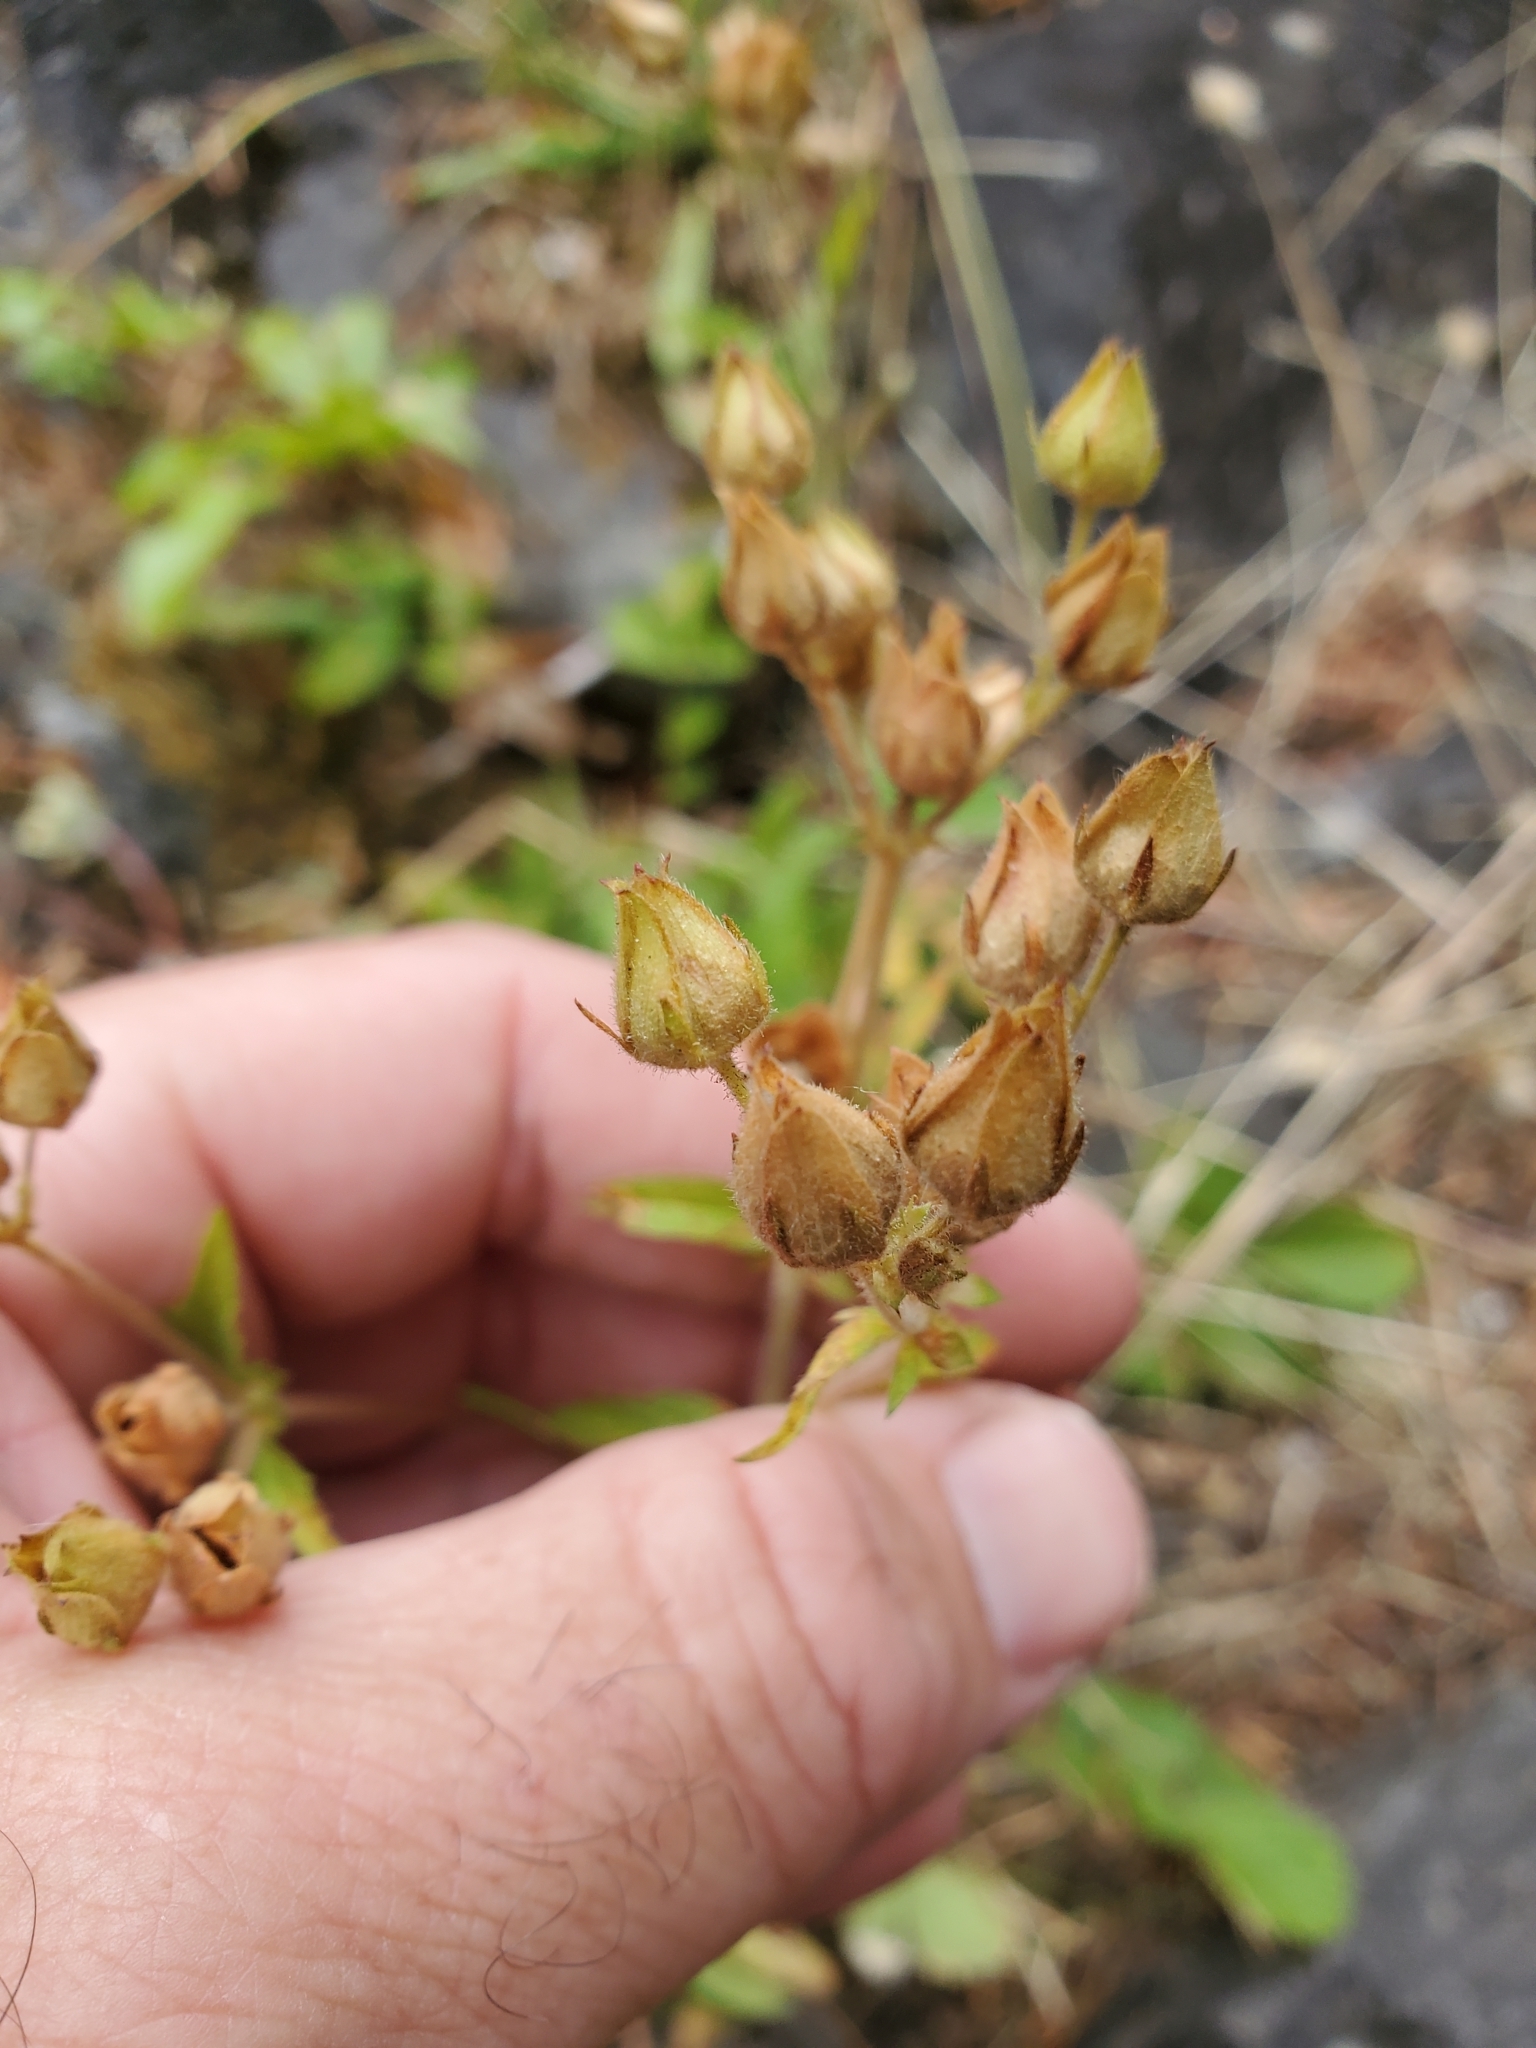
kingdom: Plantae
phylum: Tracheophyta
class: Magnoliopsida
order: Rosales
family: Rosaceae
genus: Drymocallis
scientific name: Drymocallis glandulosa
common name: Sticky cinquefoil
